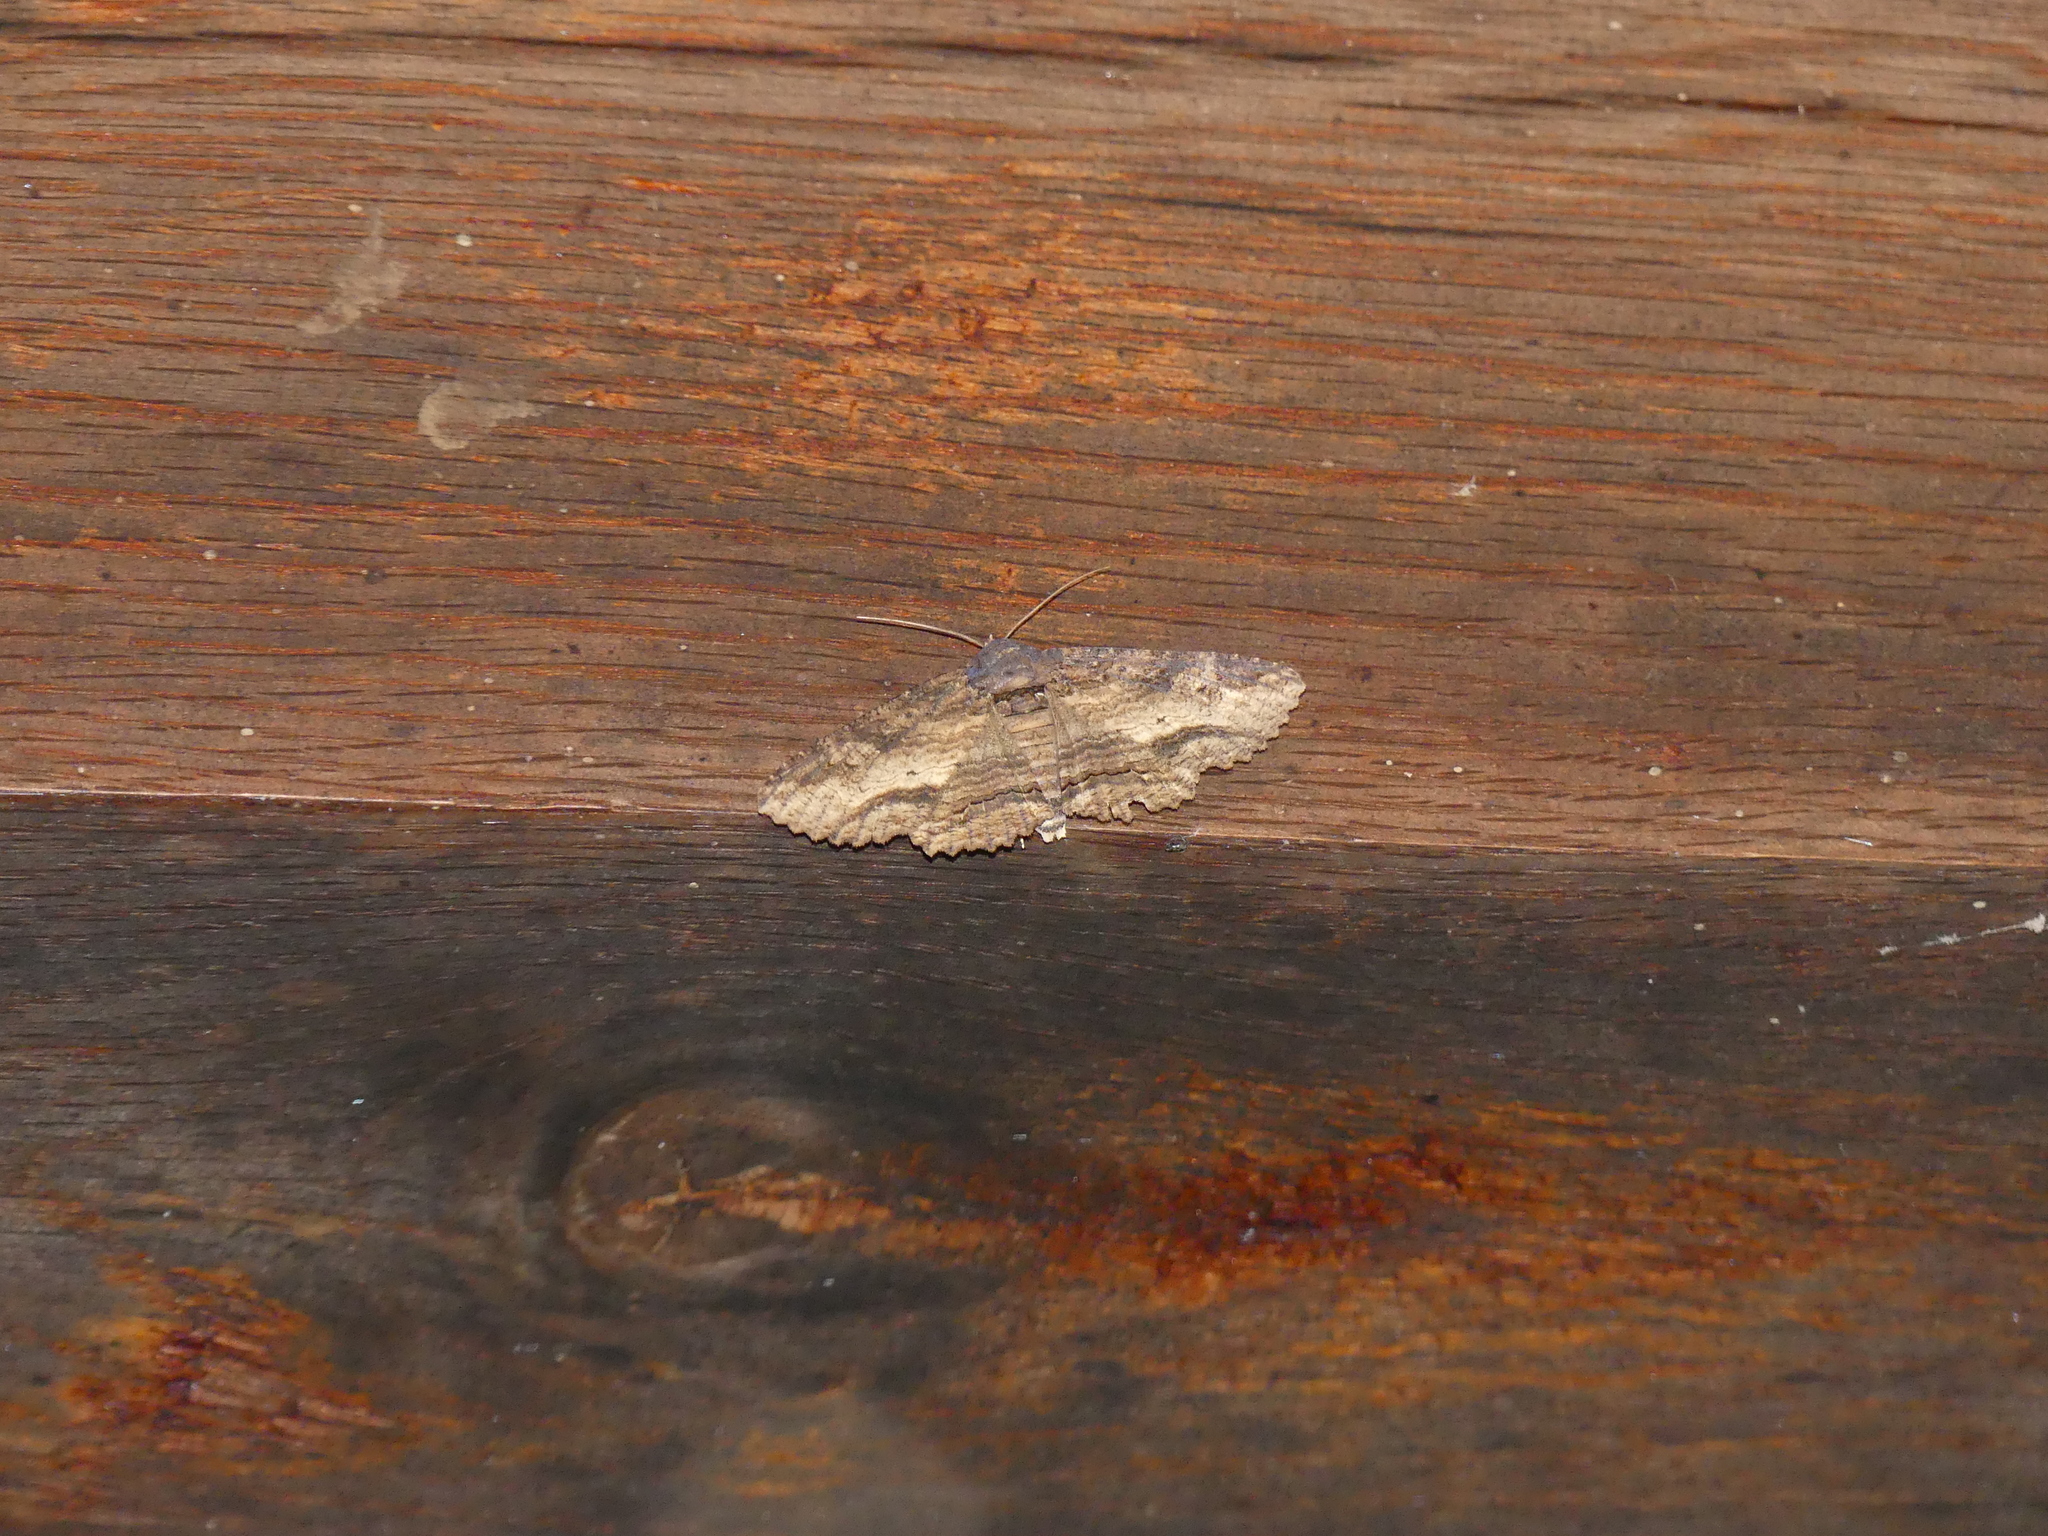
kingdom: Animalia
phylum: Arthropoda
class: Insecta
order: Lepidoptera
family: Erebidae
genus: Zale
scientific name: Zale lunata
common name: Lunate zale moth
